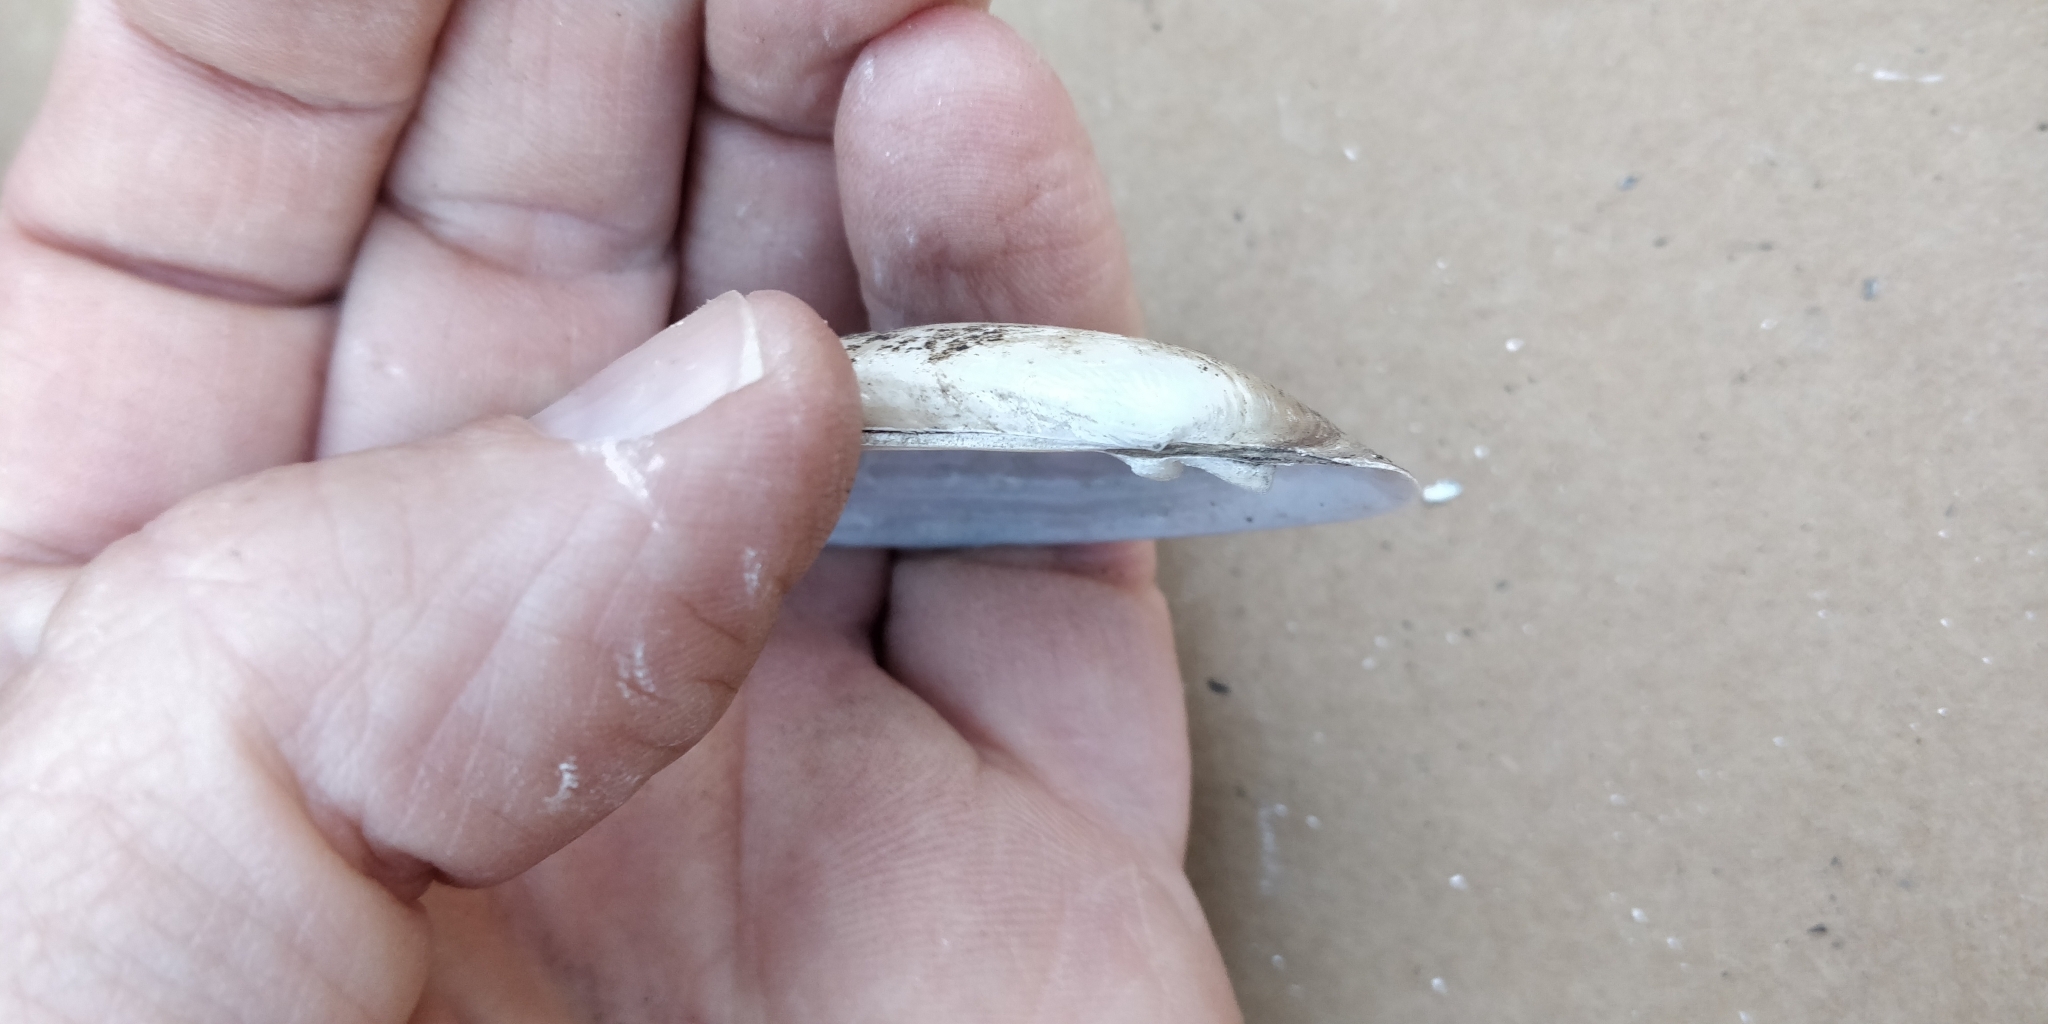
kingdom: Animalia
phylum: Mollusca
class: Bivalvia
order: Unionida
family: Unionidae
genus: Lampsilis
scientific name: Lampsilis teres
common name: Yellow sandshell
